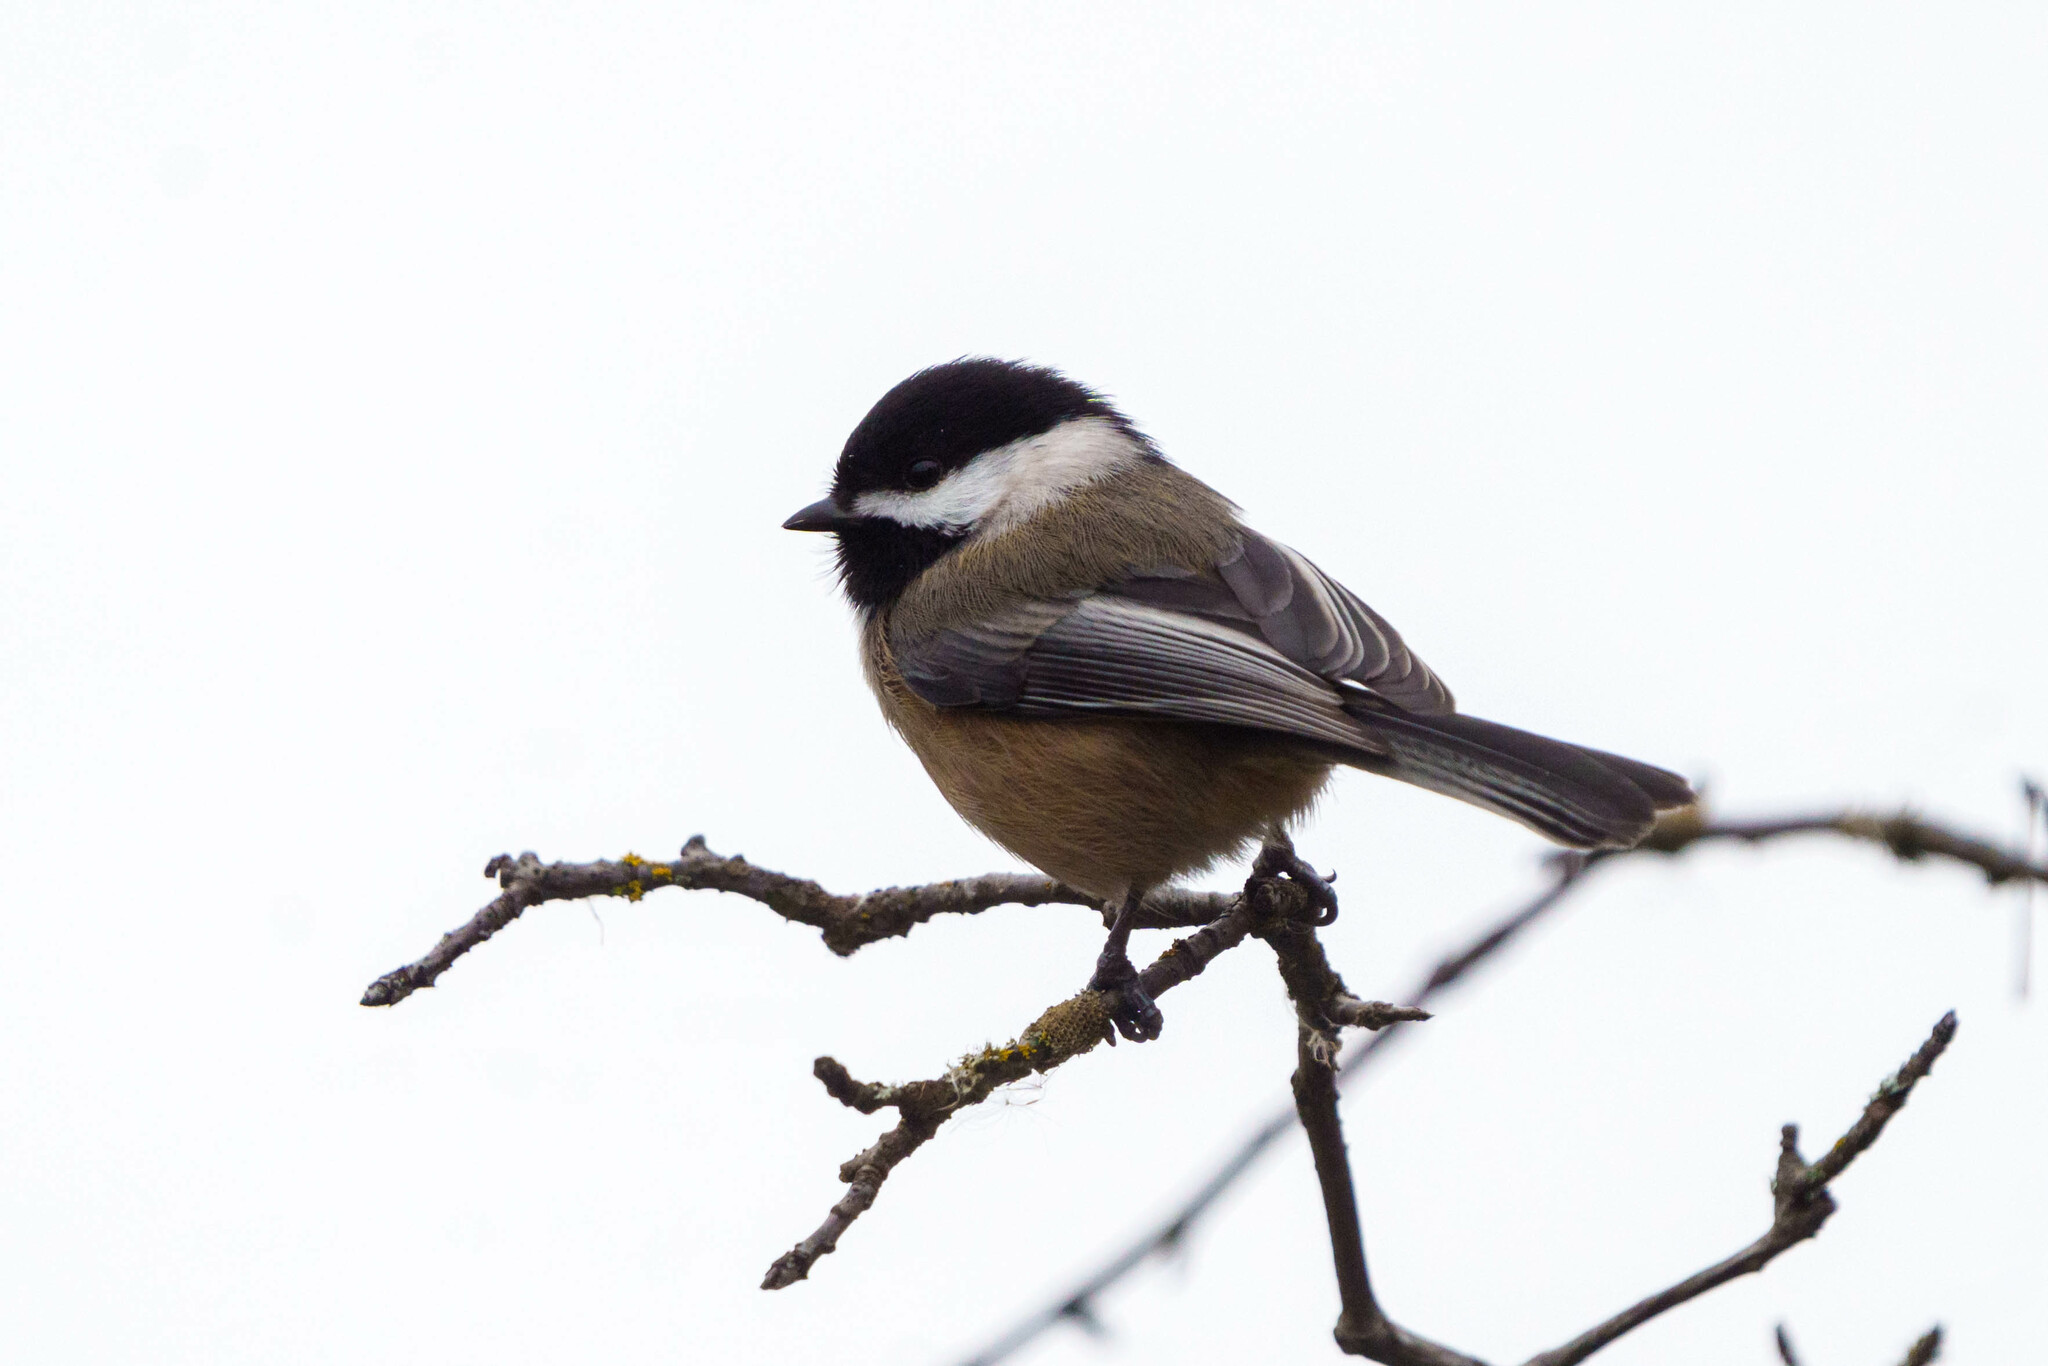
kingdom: Animalia
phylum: Chordata
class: Aves
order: Passeriformes
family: Paridae
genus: Poecile
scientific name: Poecile atricapillus
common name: Black-capped chickadee
